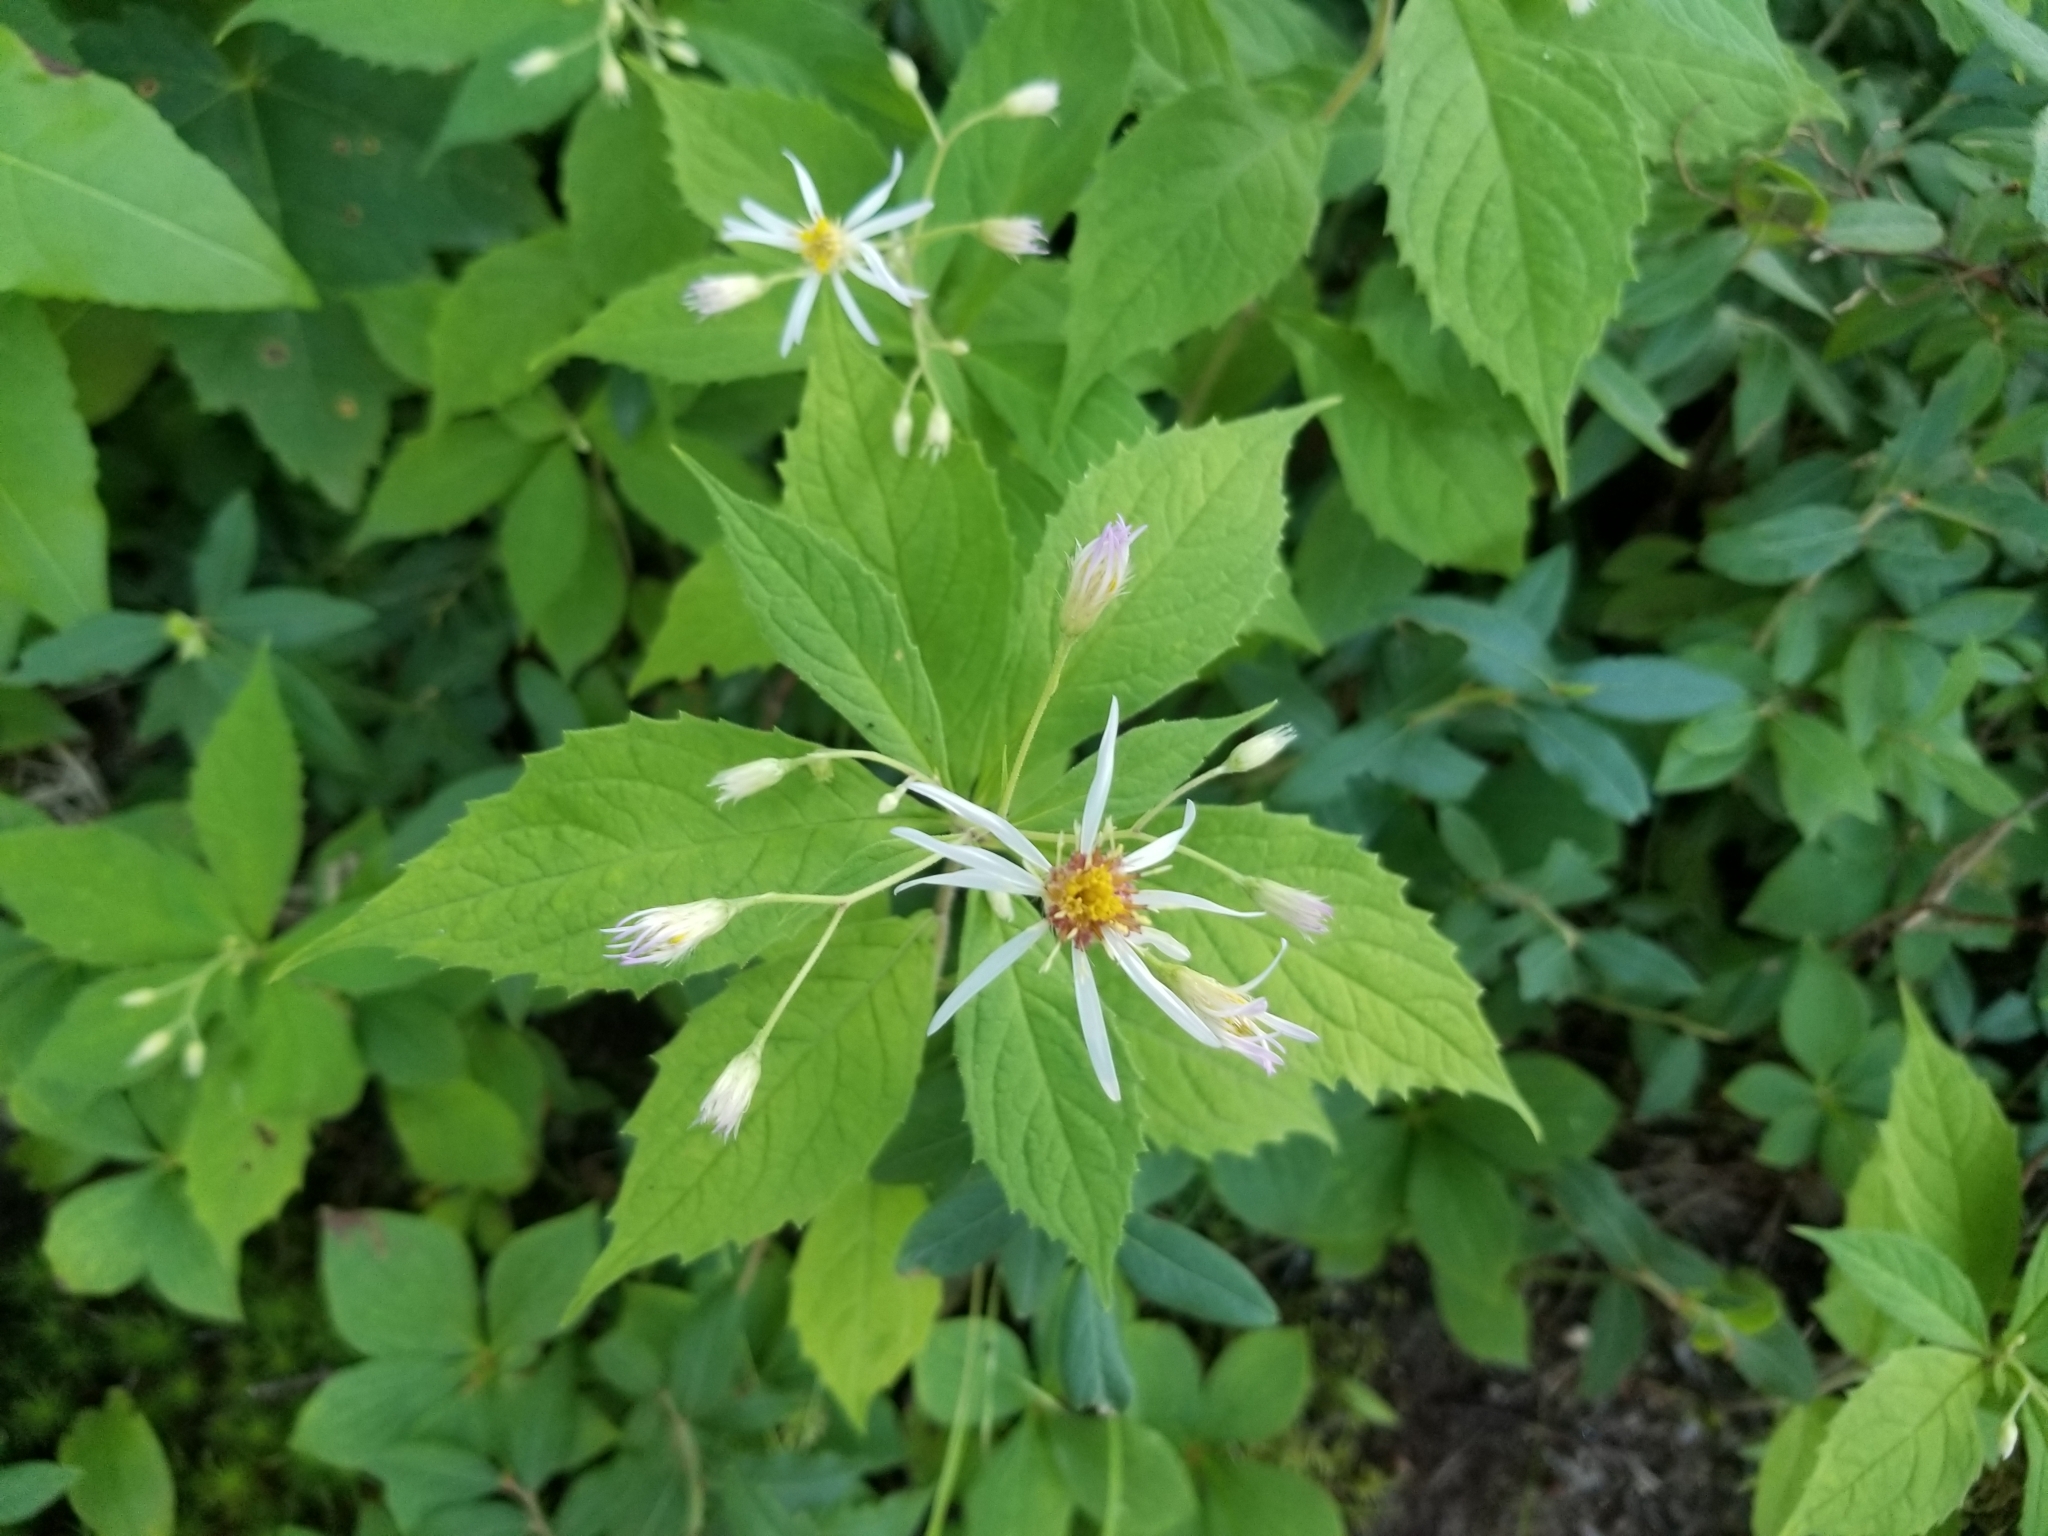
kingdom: Plantae
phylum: Tracheophyta
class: Magnoliopsida
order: Asterales
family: Asteraceae
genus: Oclemena
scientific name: Oclemena acuminata
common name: Mountain aster
